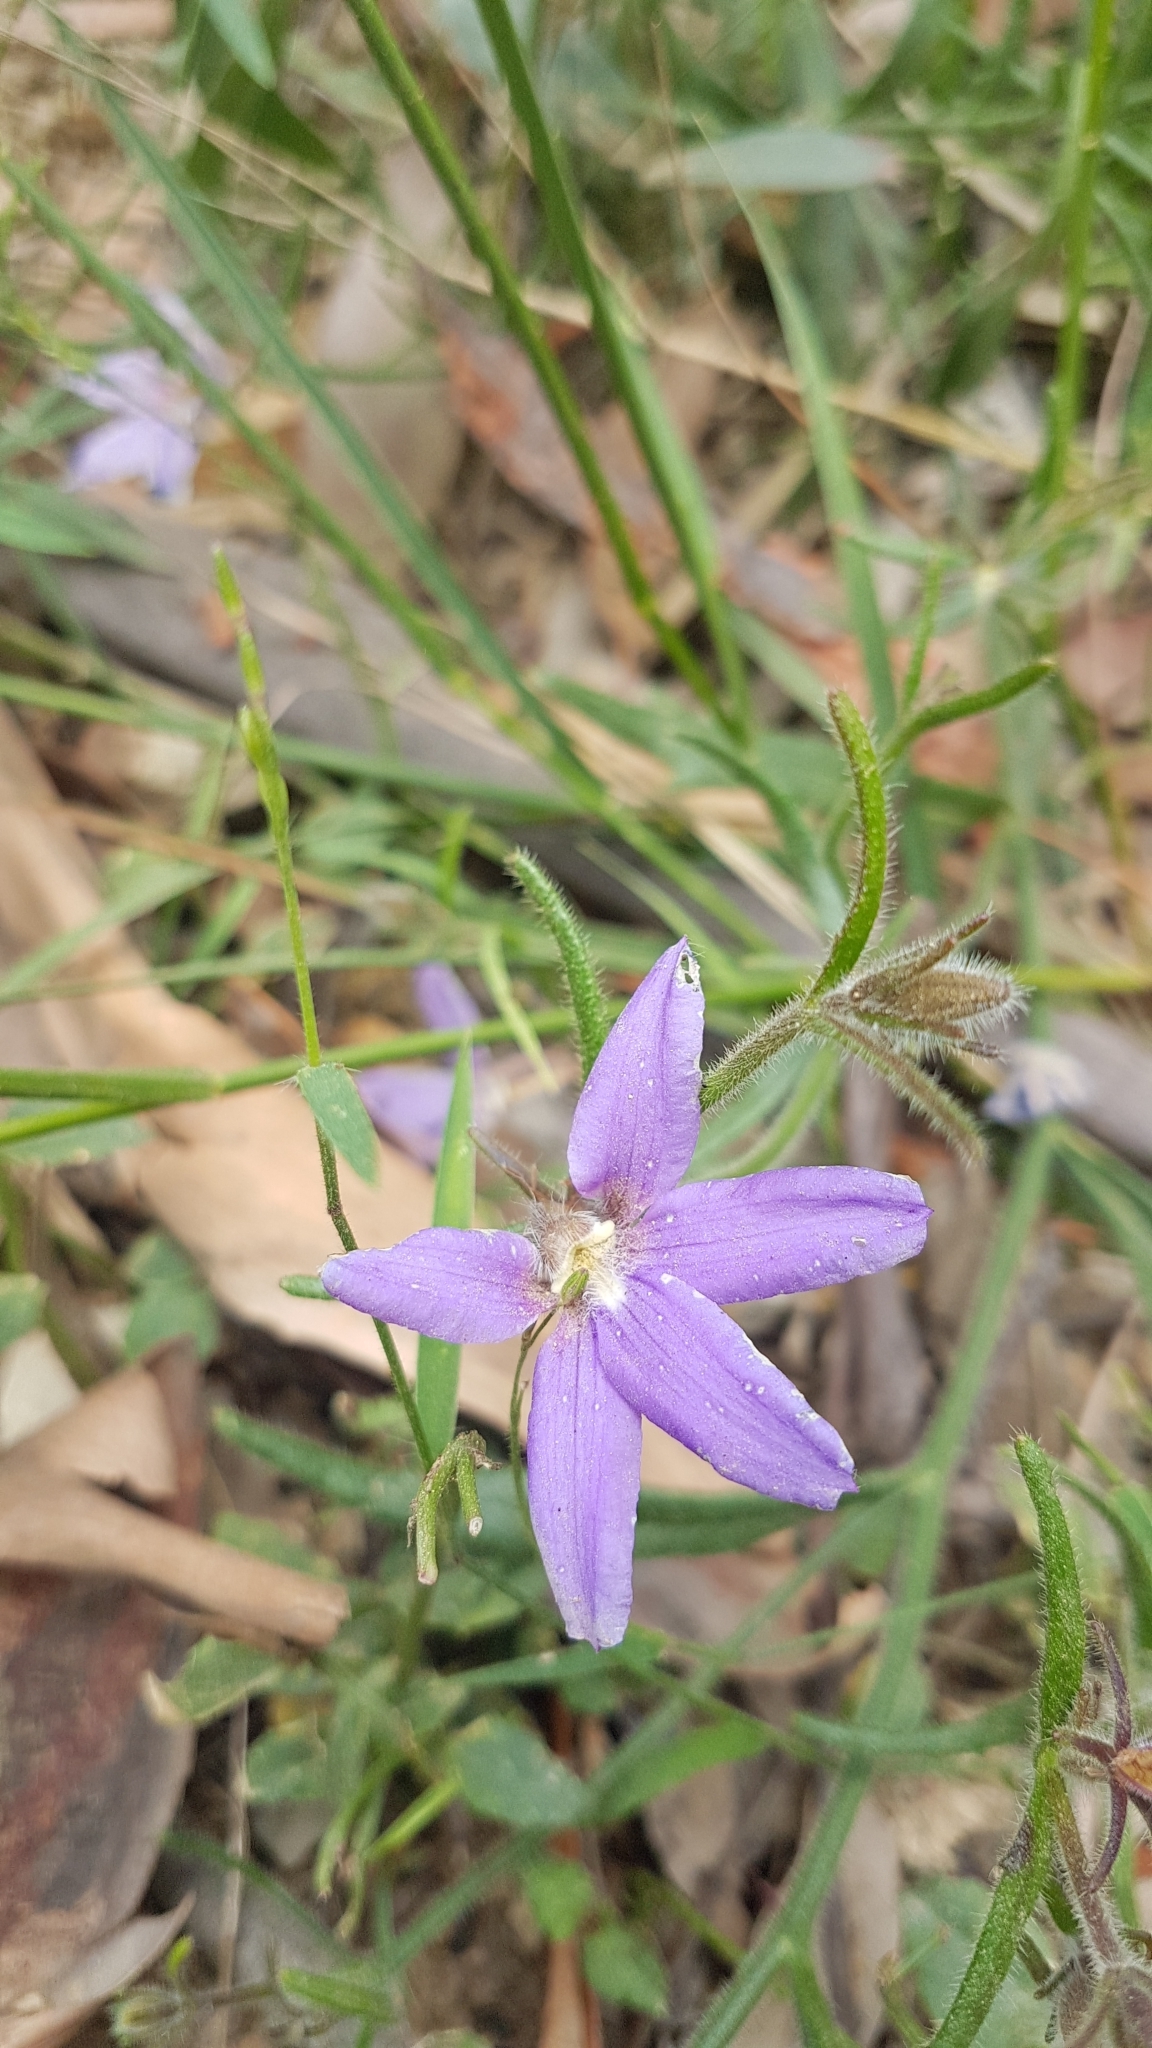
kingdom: Plantae
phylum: Tracheophyta
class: Magnoliopsida
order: Asterales
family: Goodeniaceae
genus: Scaevola
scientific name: Scaevola ramosissima
